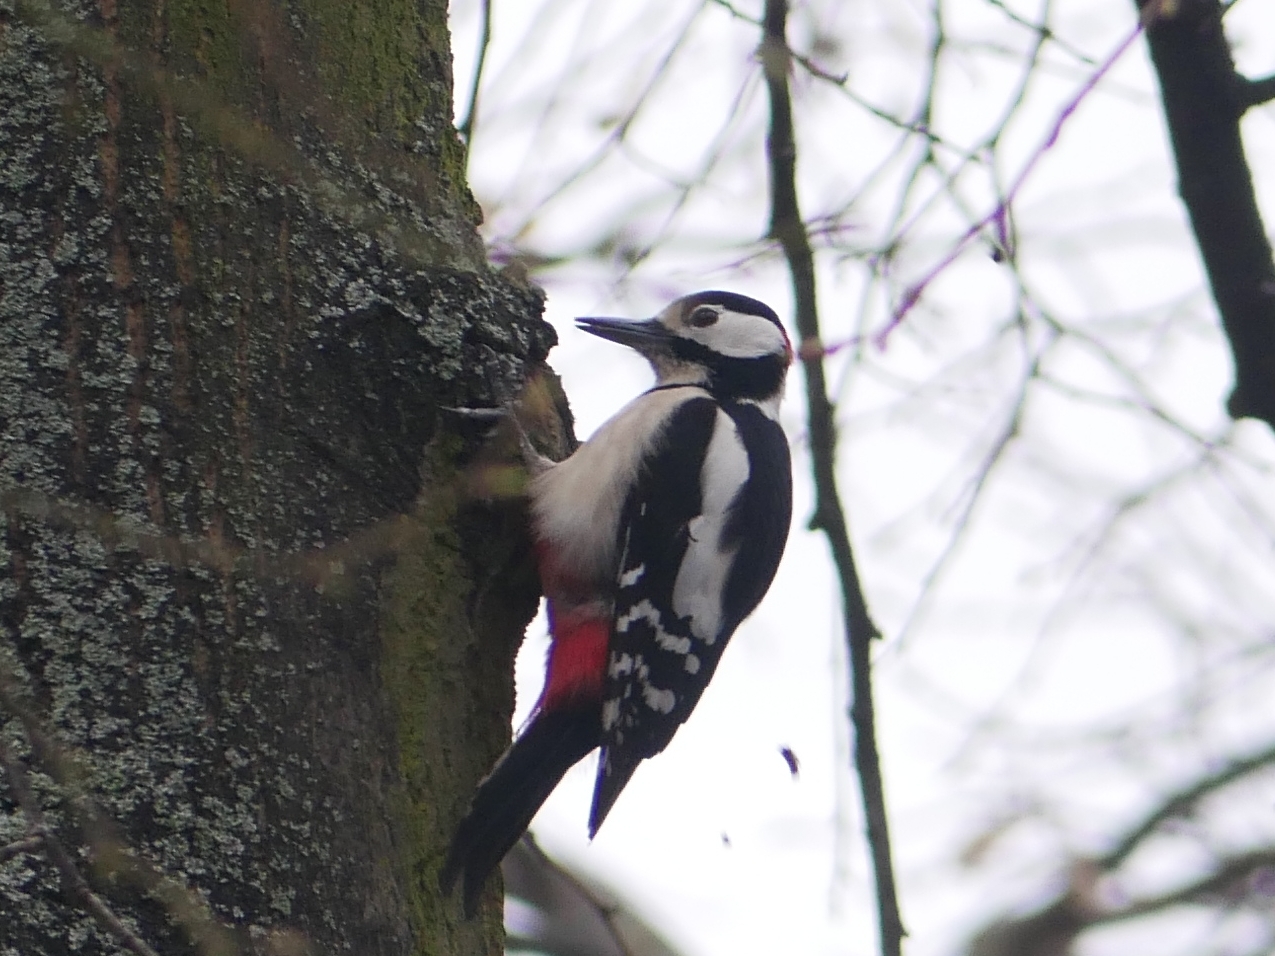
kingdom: Animalia
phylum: Chordata
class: Aves
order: Piciformes
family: Picidae
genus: Dendrocopos
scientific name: Dendrocopos major
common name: Great spotted woodpecker
